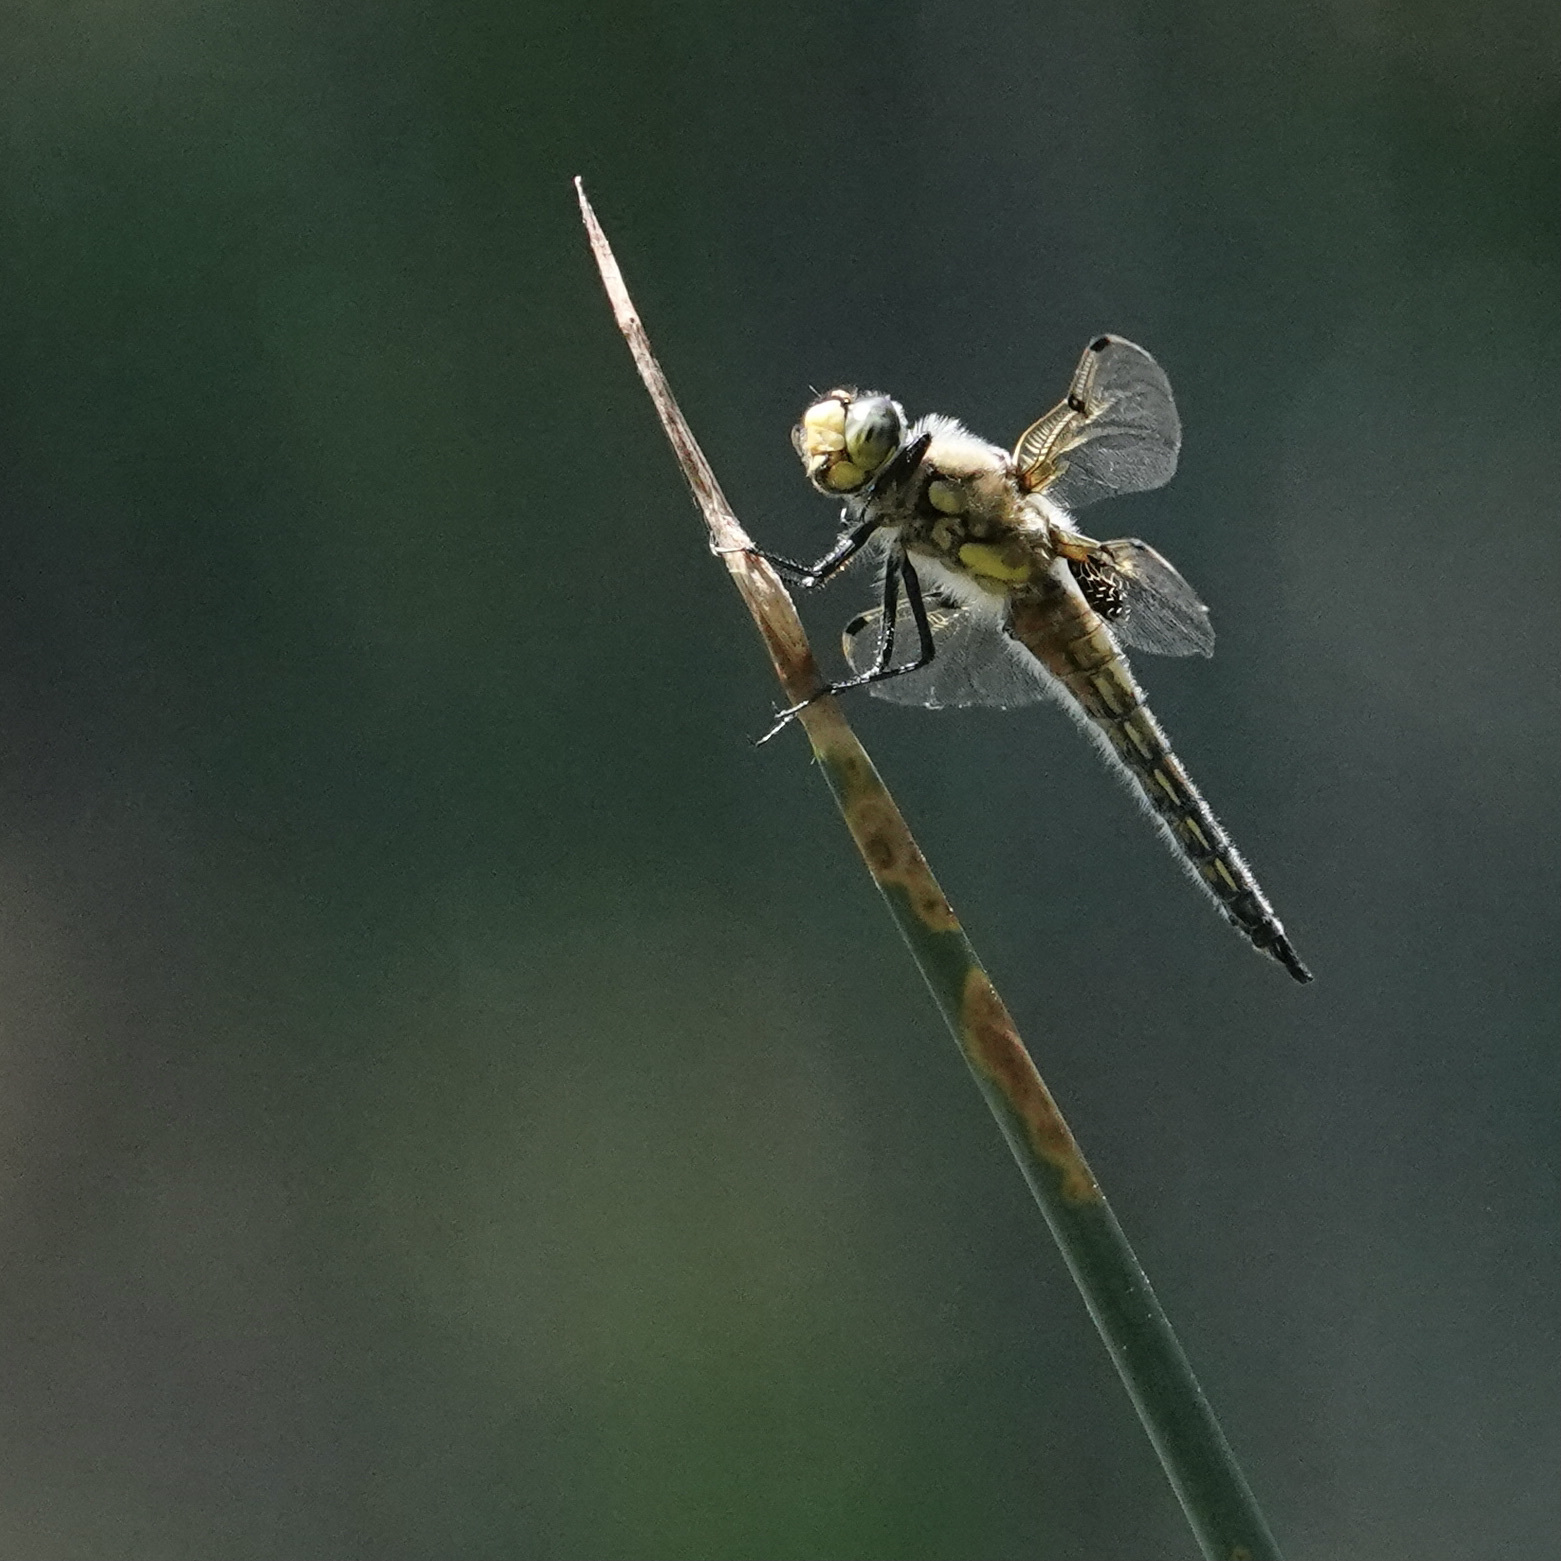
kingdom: Animalia
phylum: Arthropoda
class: Insecta
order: Odonata
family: Libellulidae
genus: Libellula
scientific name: Libellula quadrimaculata
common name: Four-spotted chaser
